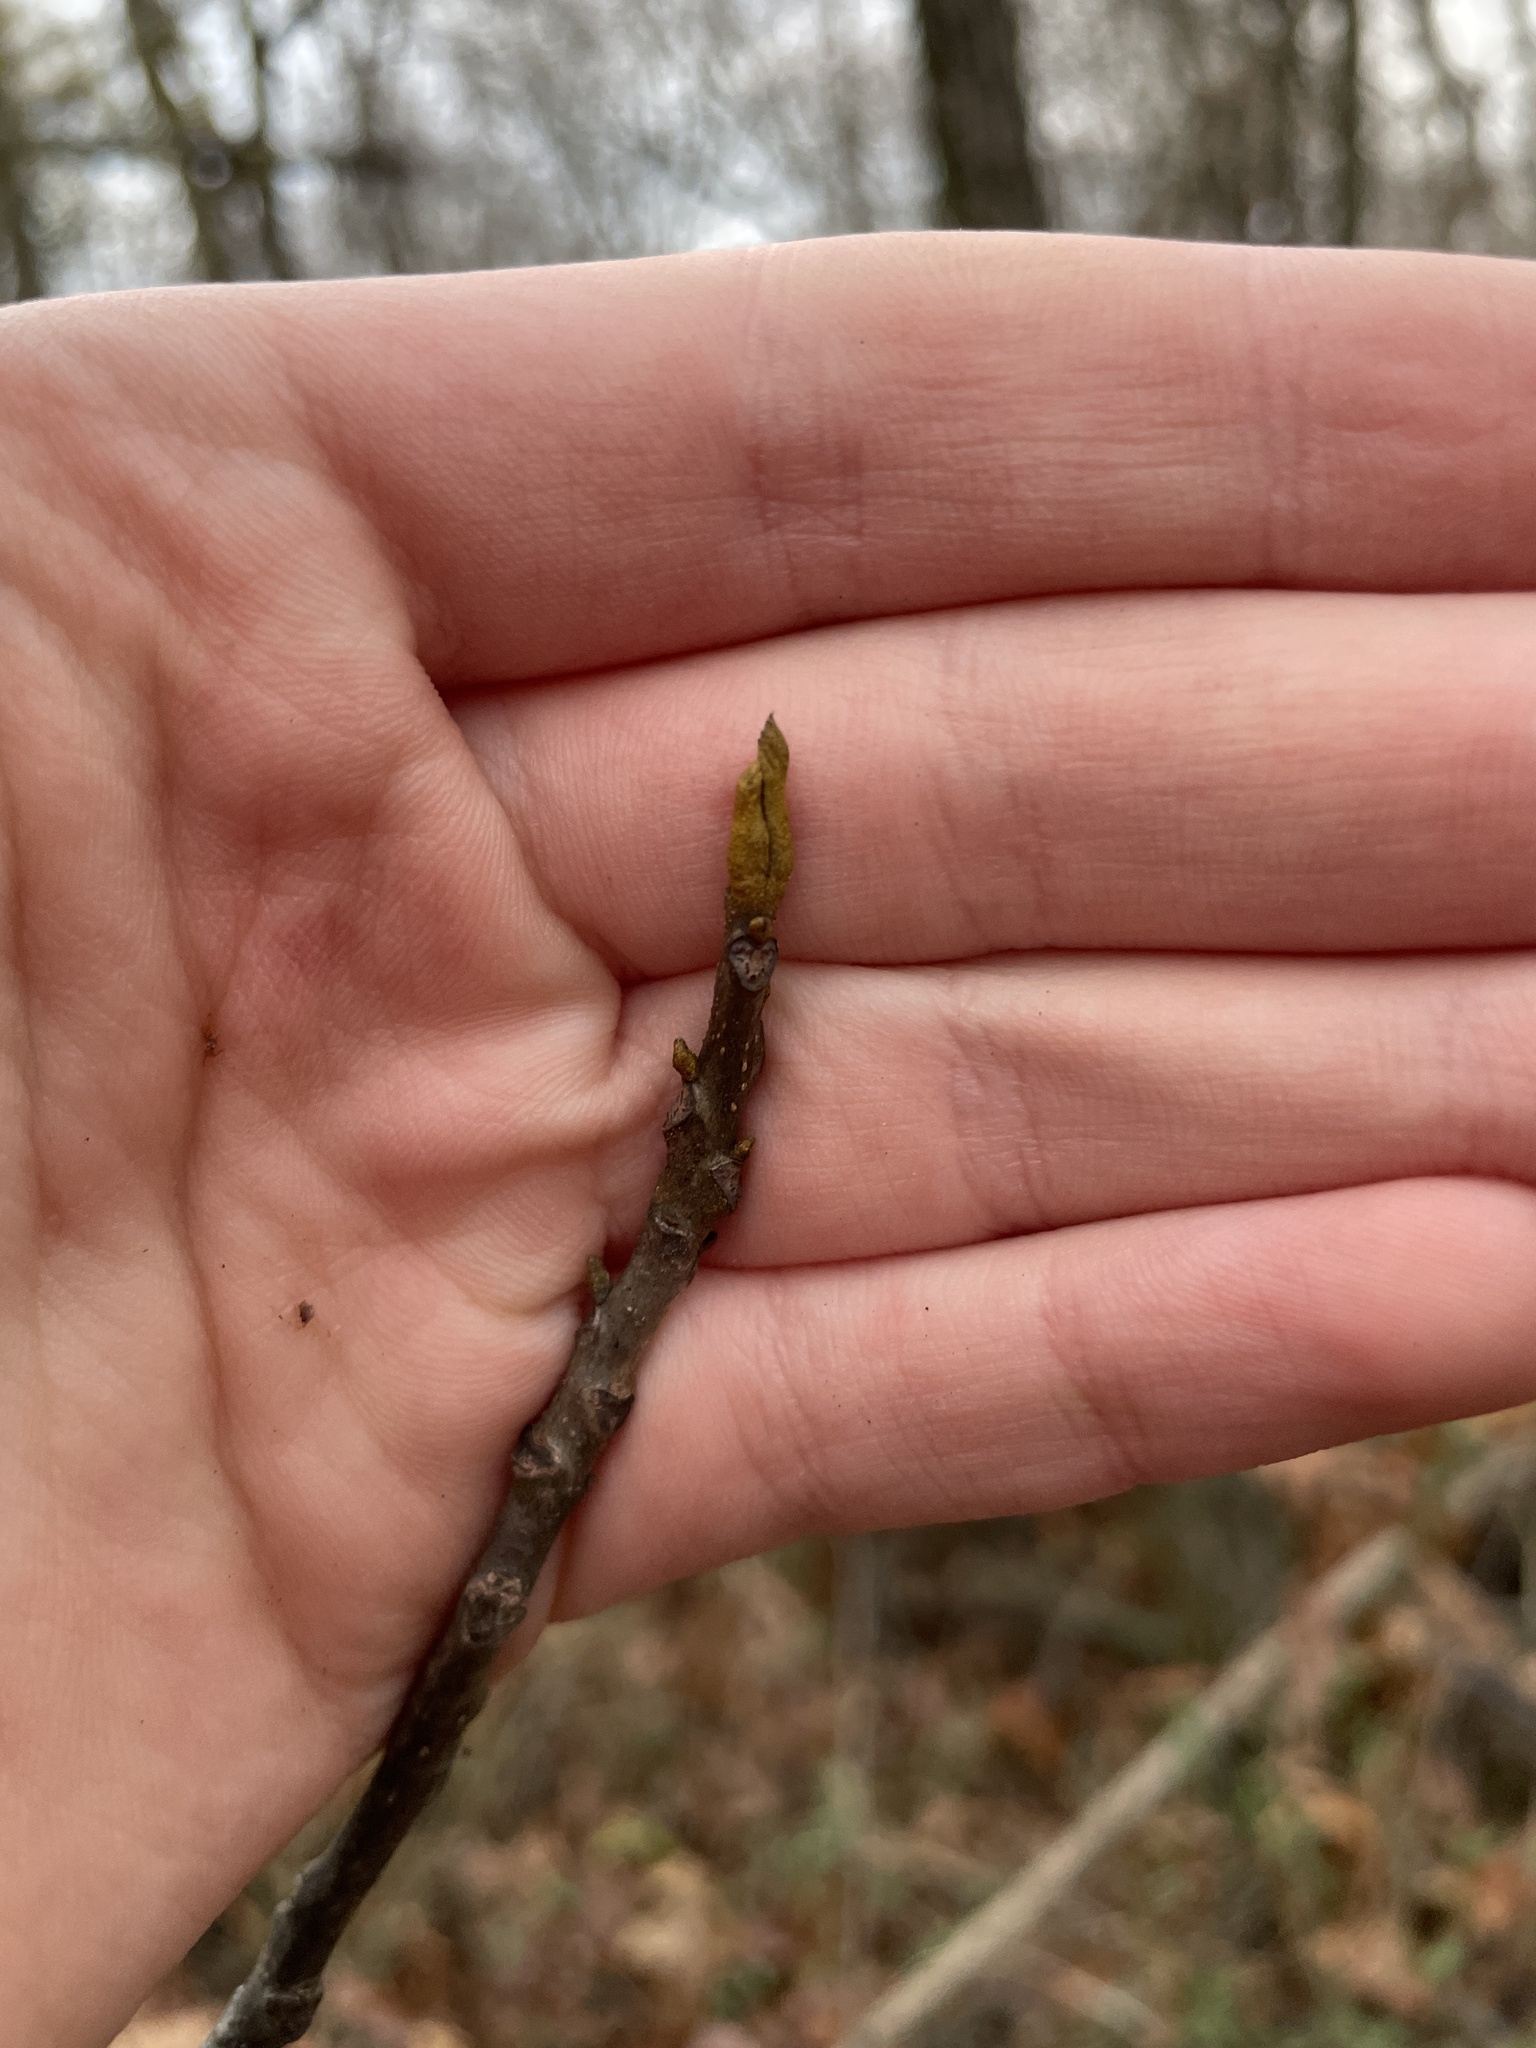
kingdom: Plantae
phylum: Tracheophyta
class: Magnoliopsida
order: Fagales
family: Juglandaceae
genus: Carya
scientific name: Carya cordiformis
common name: Bitternut hickory
